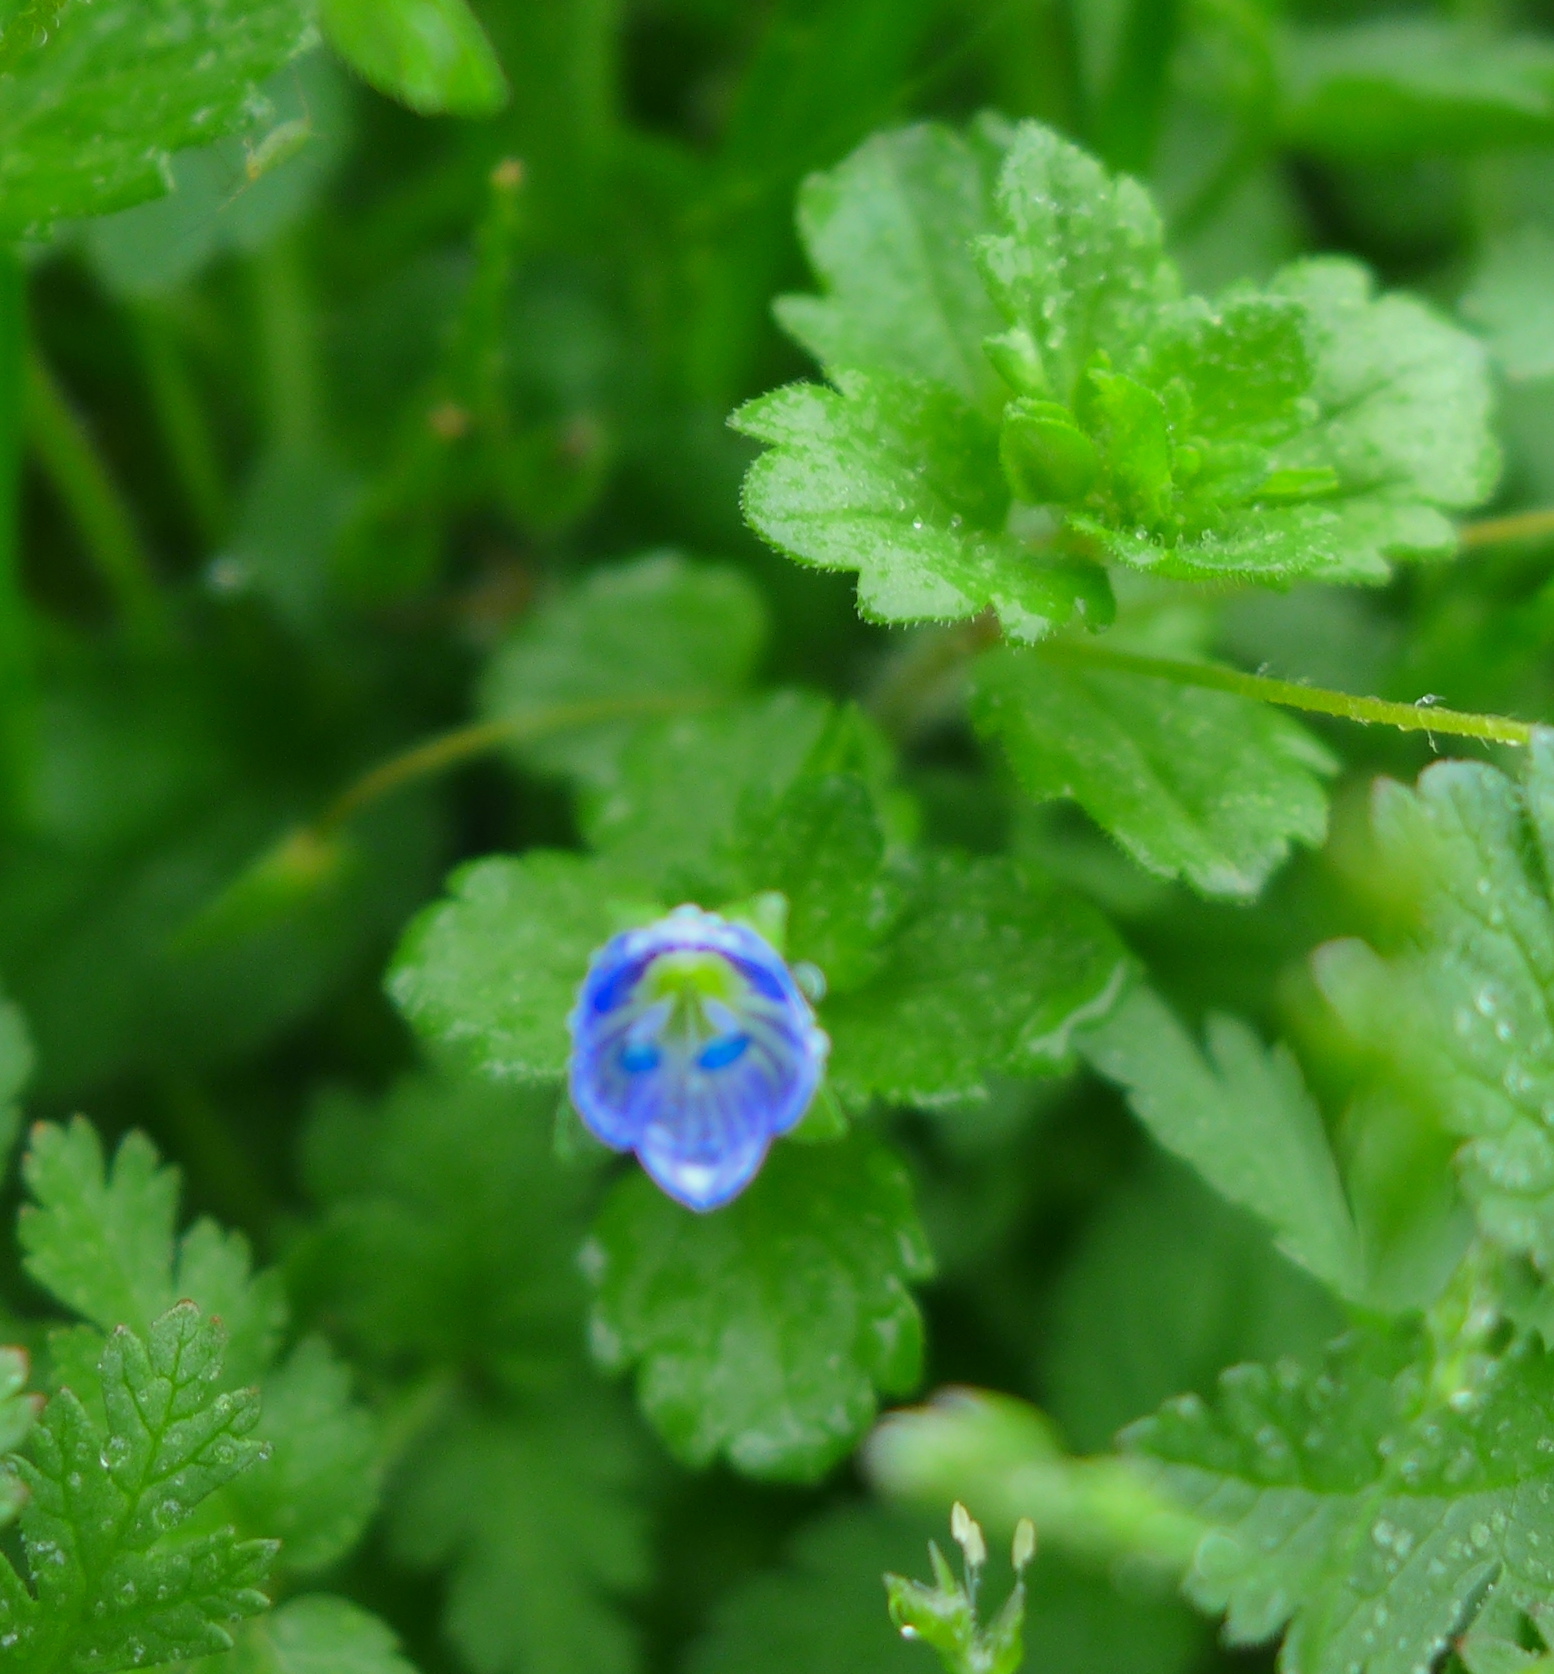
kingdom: Plantae
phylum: Tracheophyta
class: Magnoliopsida
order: Lamiales
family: Plantaginaceae
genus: Veronica
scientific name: Veronica persica
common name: Common field-speedwell
